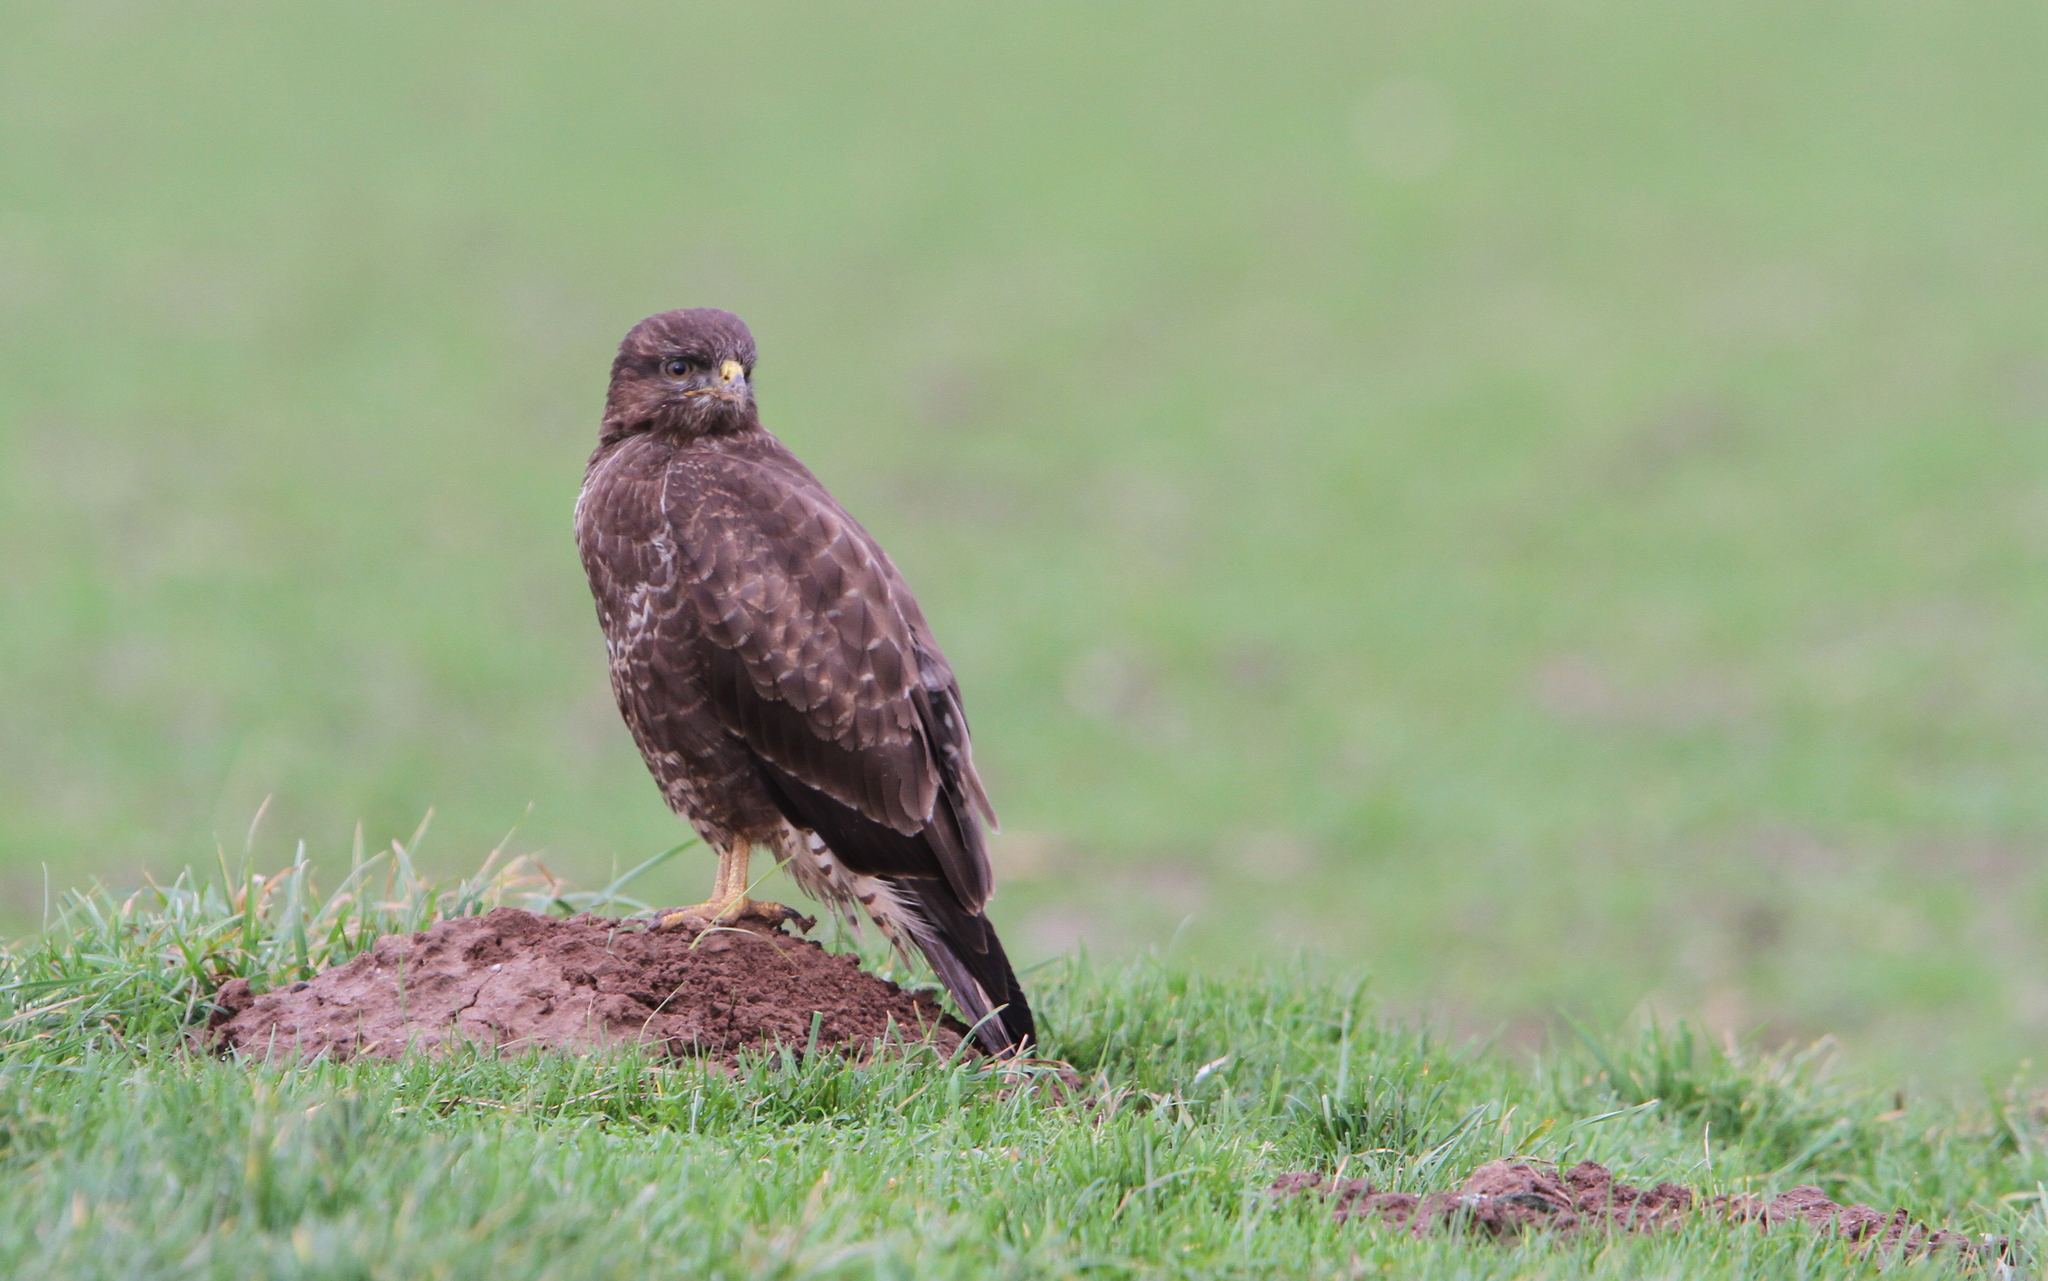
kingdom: Animalia
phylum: Chordata
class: Aves
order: Accipitriformes
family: Accipitridae
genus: Buteo
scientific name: Buteo buteo
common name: Common buzzard
